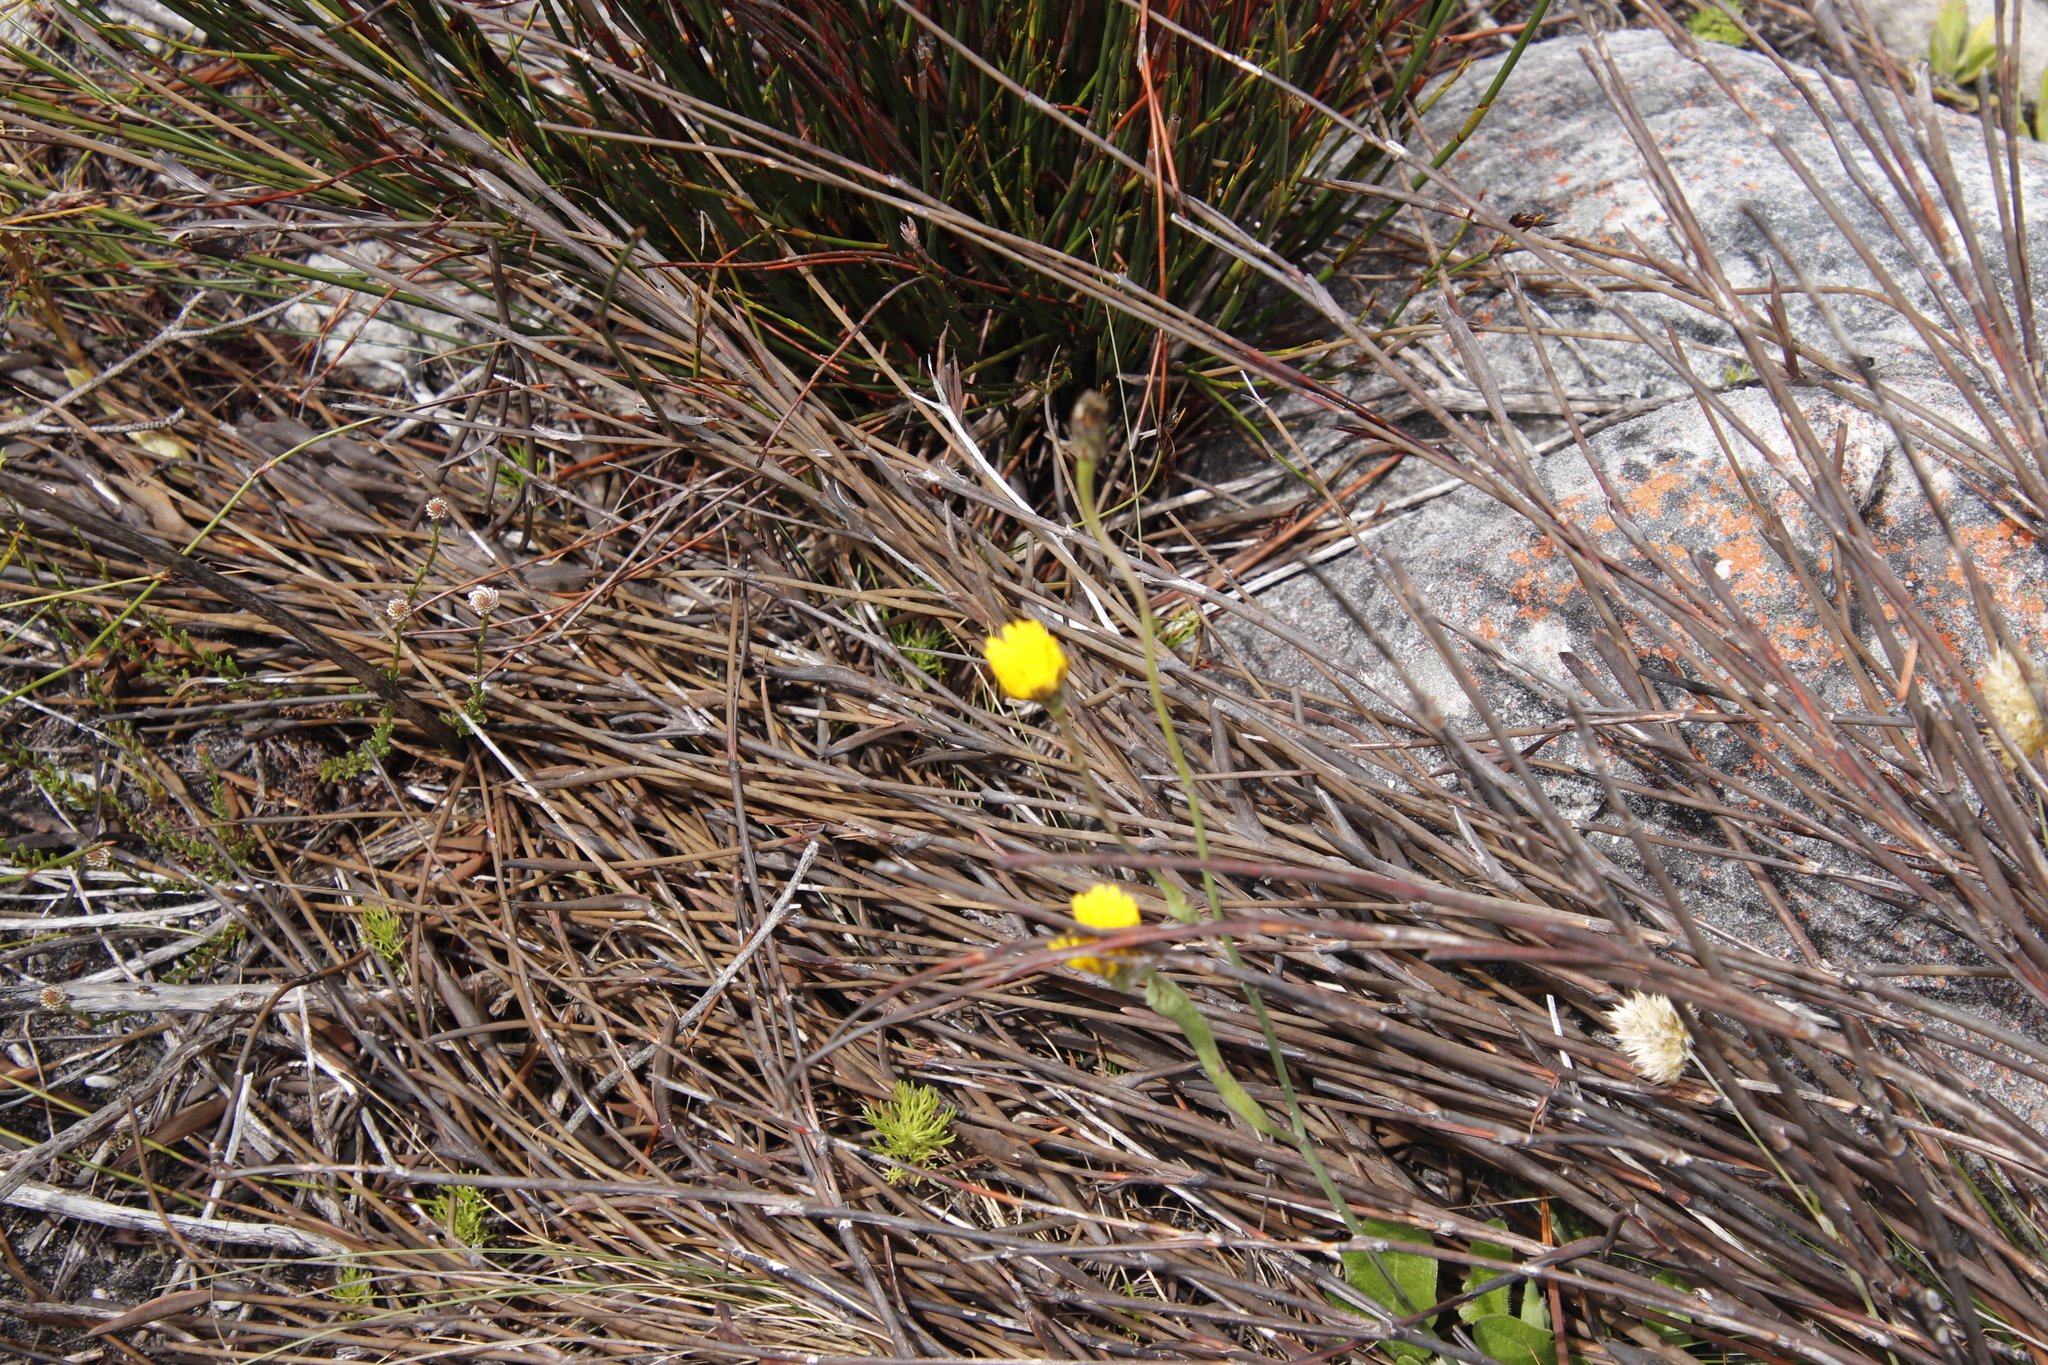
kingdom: Plantae
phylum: Tracheophyta
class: Magnoliopsida
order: Asterales
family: Asteraceae
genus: Hypochaeris
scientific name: Hypochaeris radicata
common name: Flatweed
